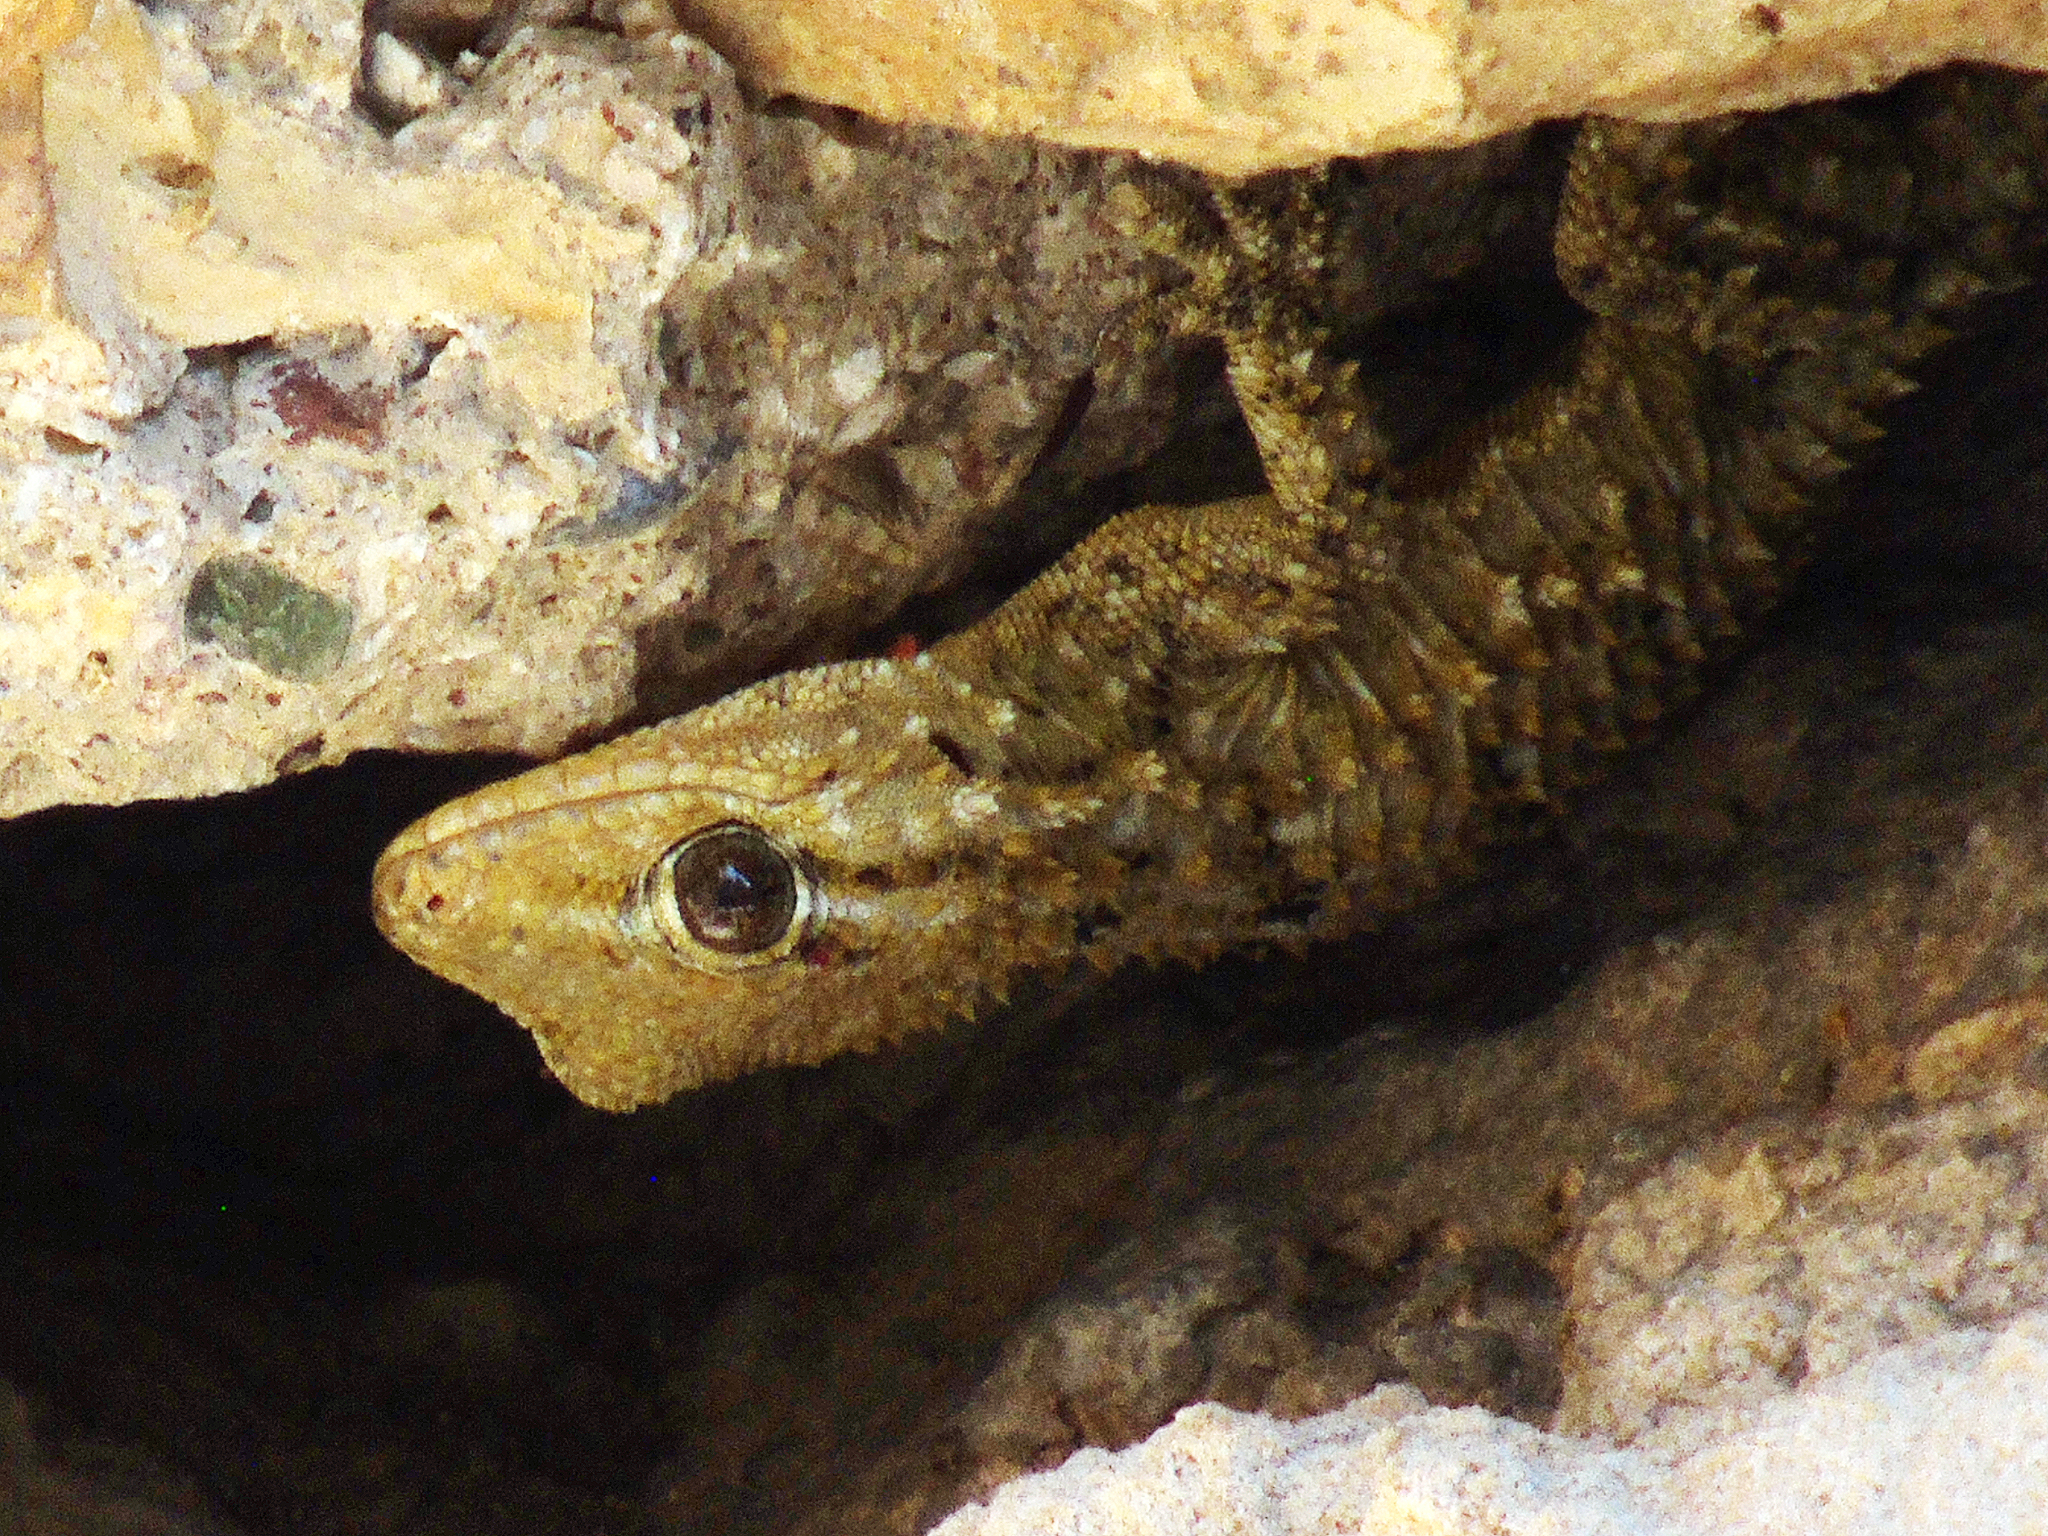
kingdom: Animalia
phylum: Chordata
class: Squamata
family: Phyllodactylidae
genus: Tarentola
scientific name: Tarentola mauritanica
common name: Moorish gecko
